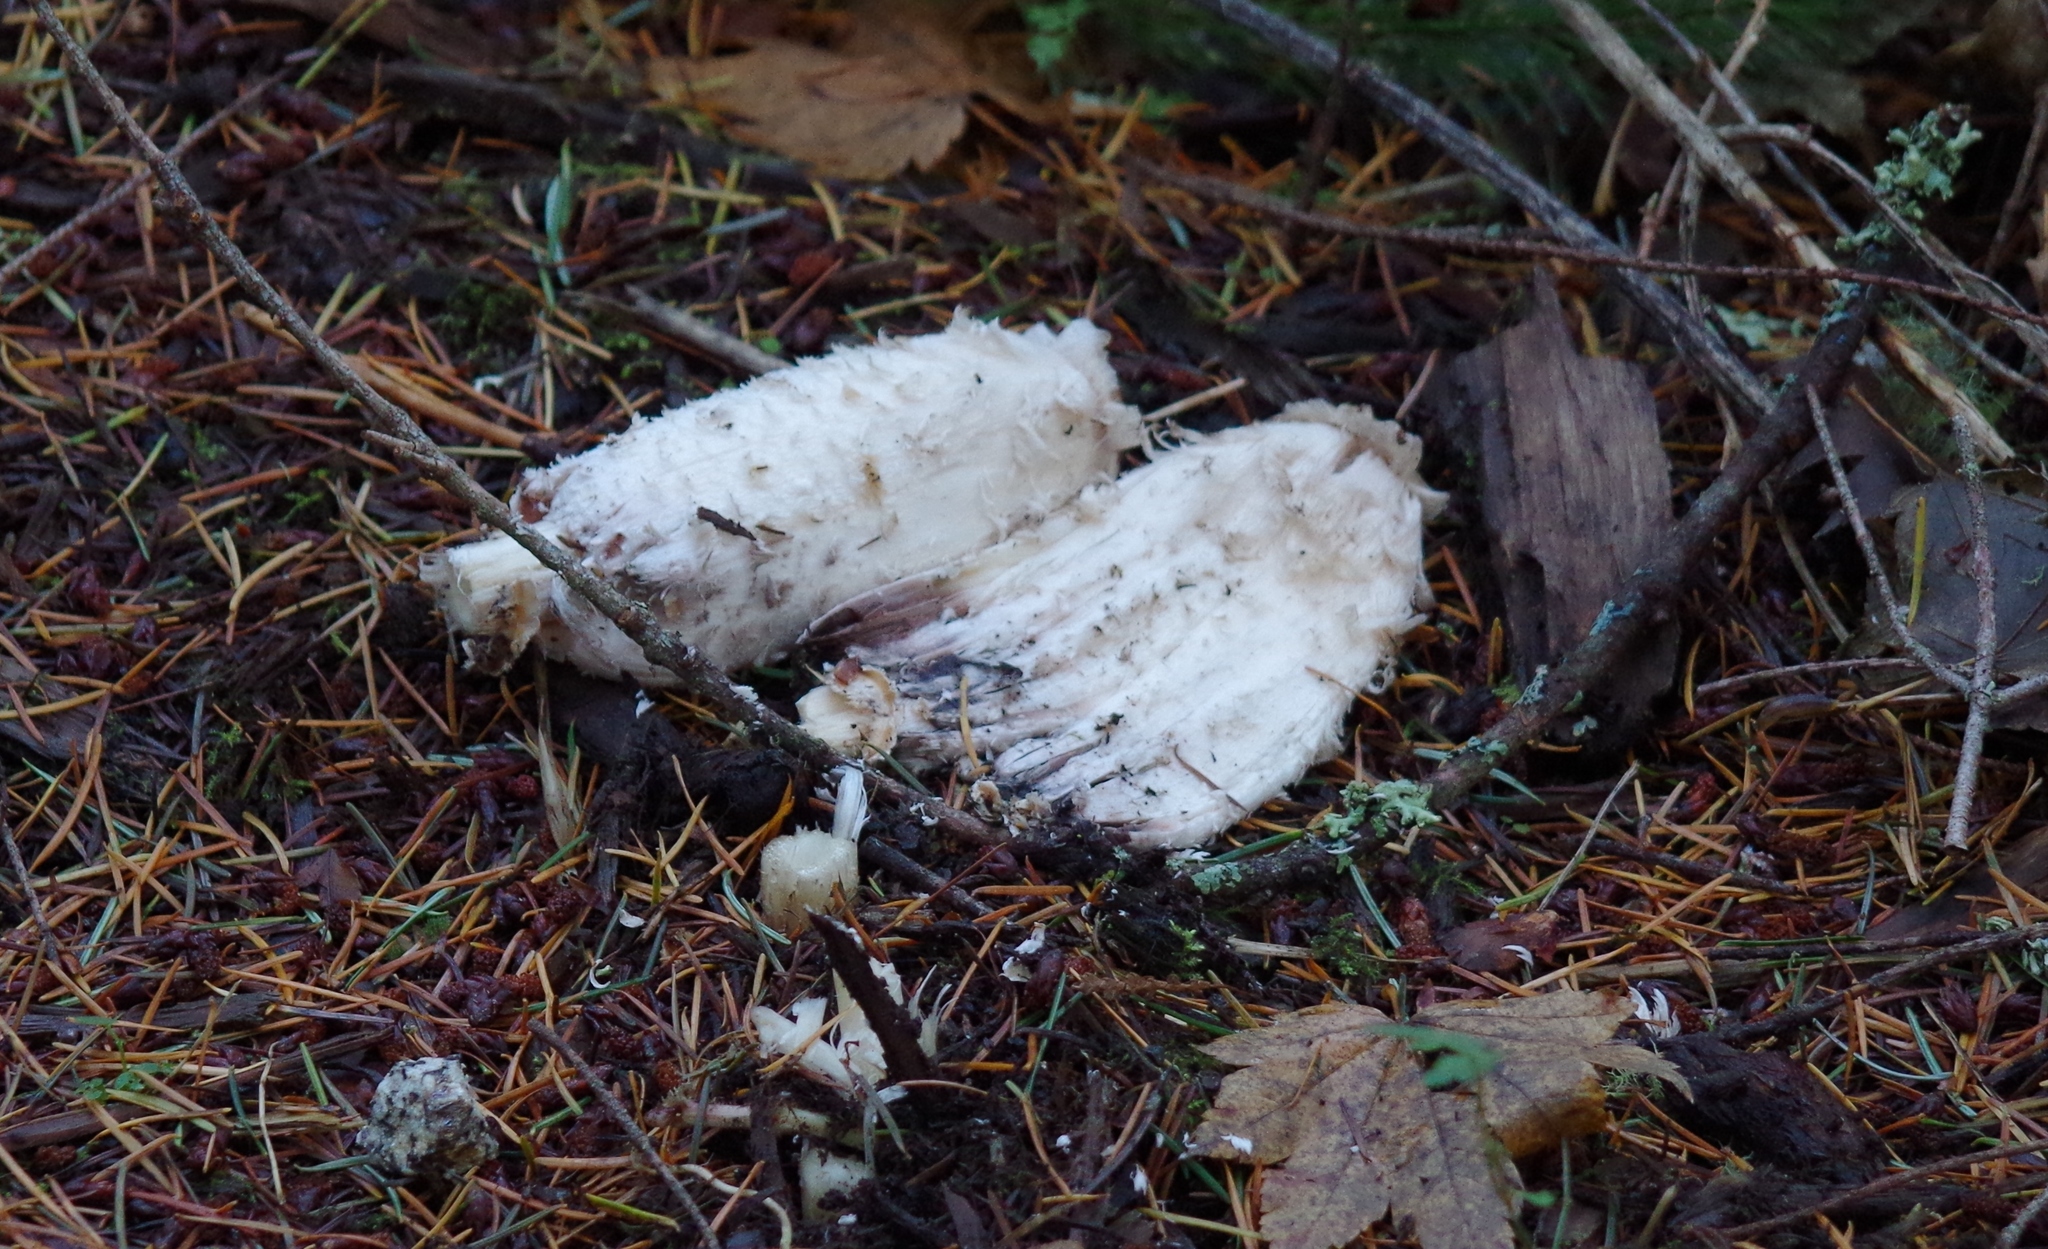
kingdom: Fungi
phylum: Basidiomycota
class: Agaricomycetes
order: Agaricales
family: Agaricaceae
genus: Coprinus
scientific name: Coprinus comatus
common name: Lawyer's wig
